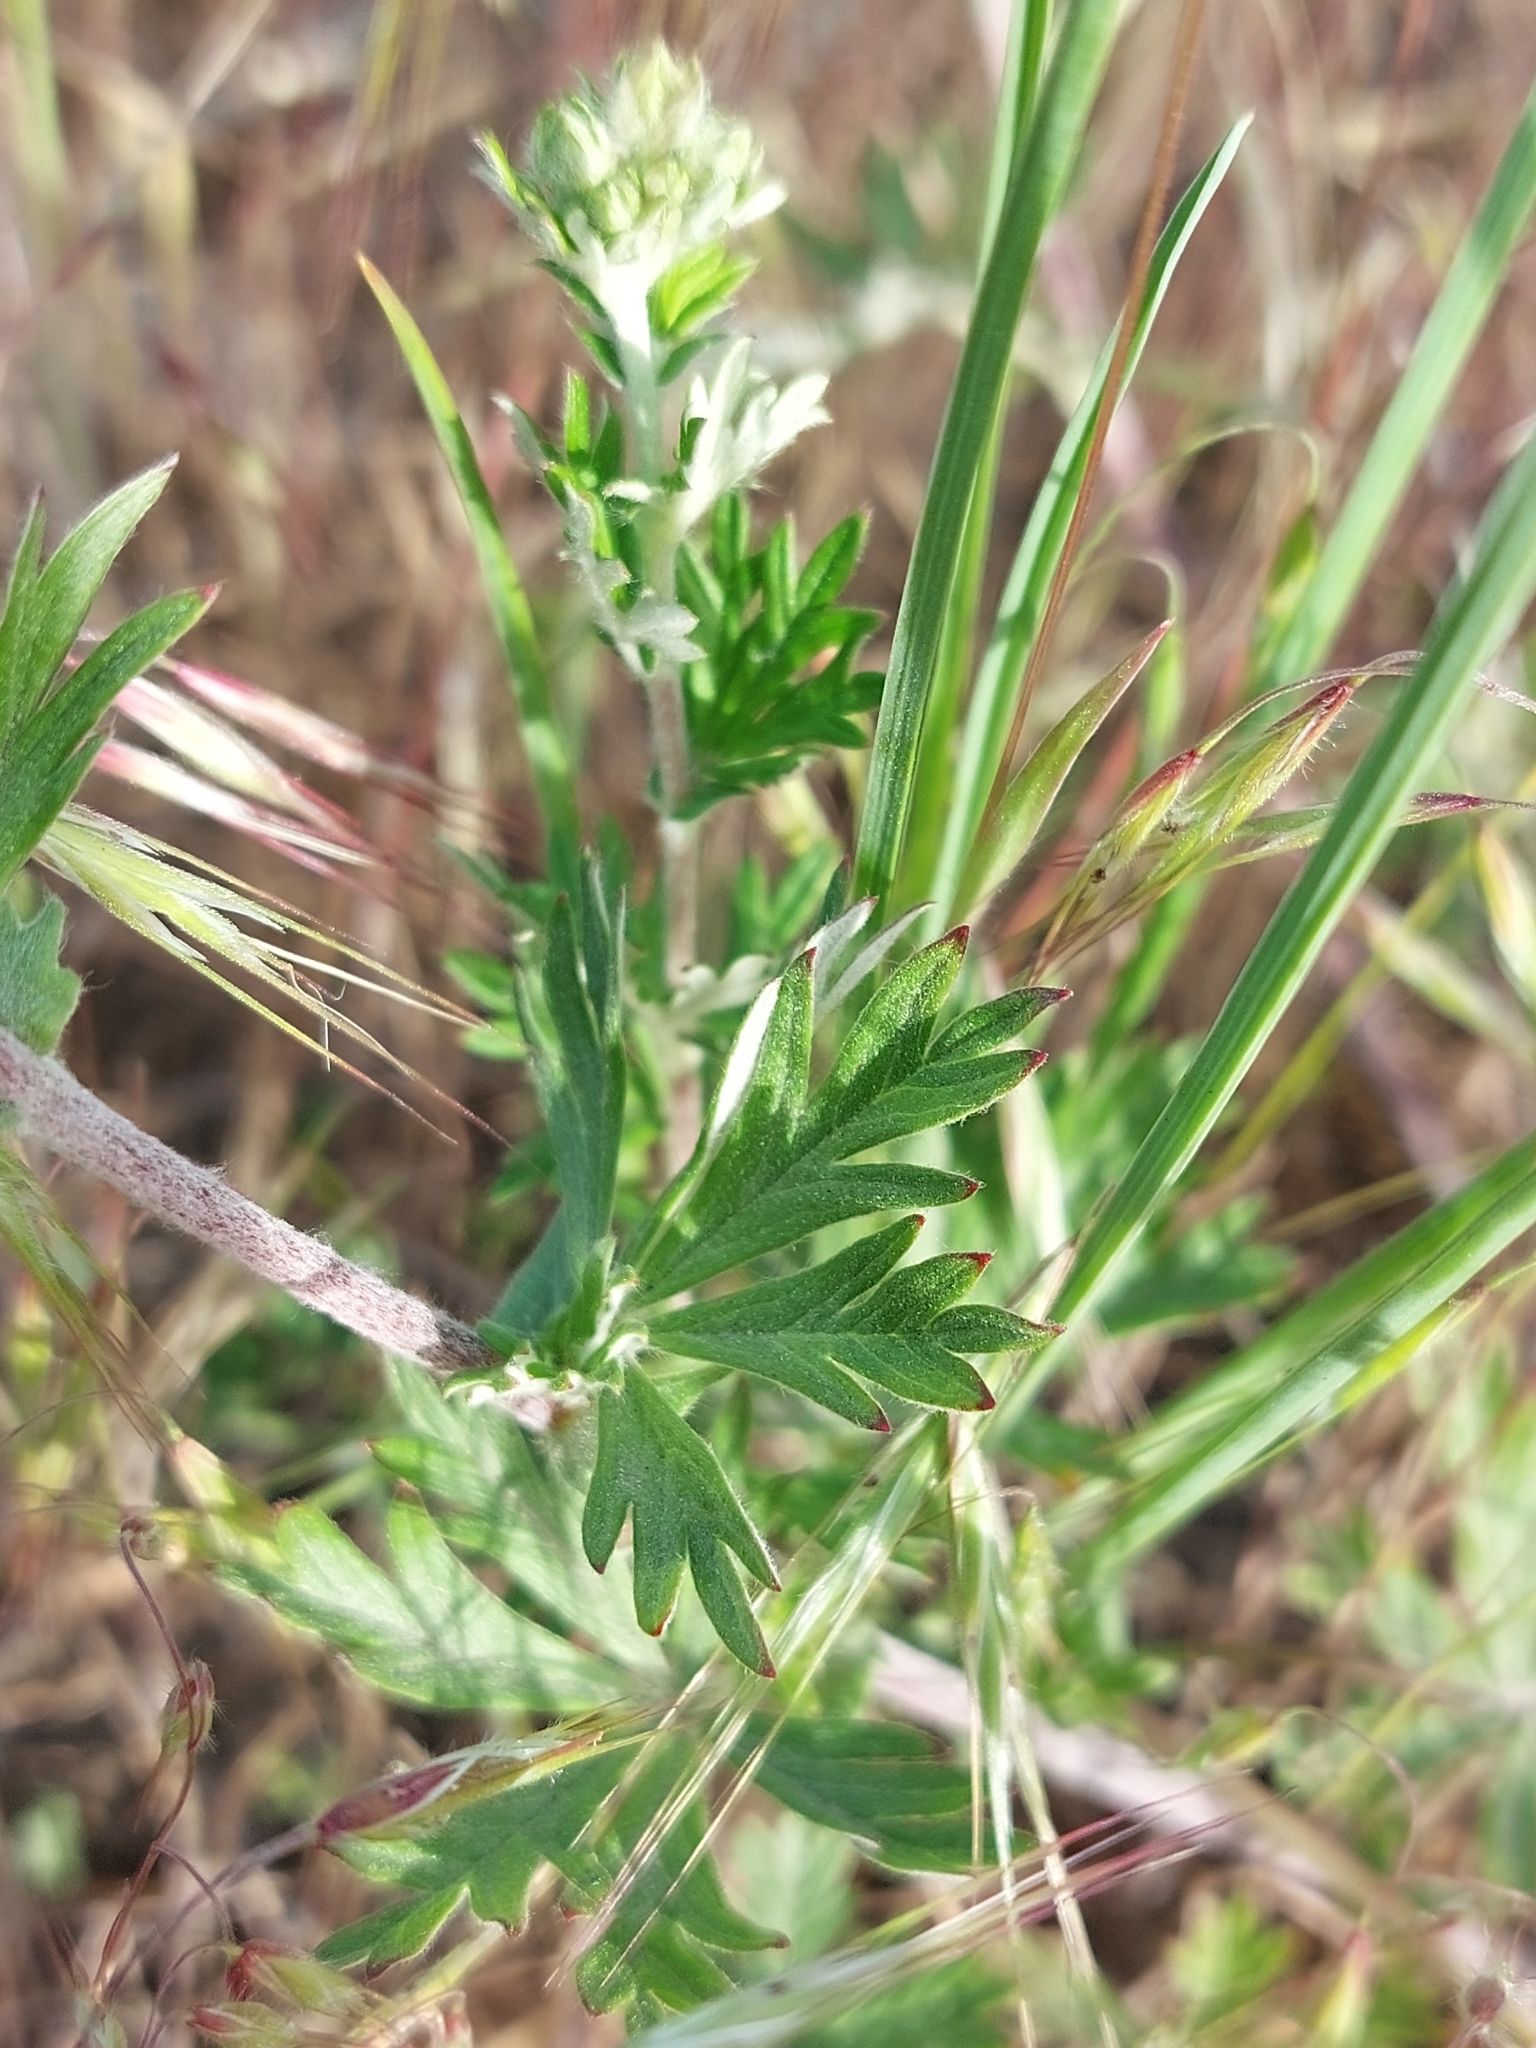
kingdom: Plantae
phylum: Tracheophyta
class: Magnoliopsida
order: Rosales
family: Rosaceae
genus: Potentilla
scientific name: Potentilla argentea
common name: Hoary cinquefoil
